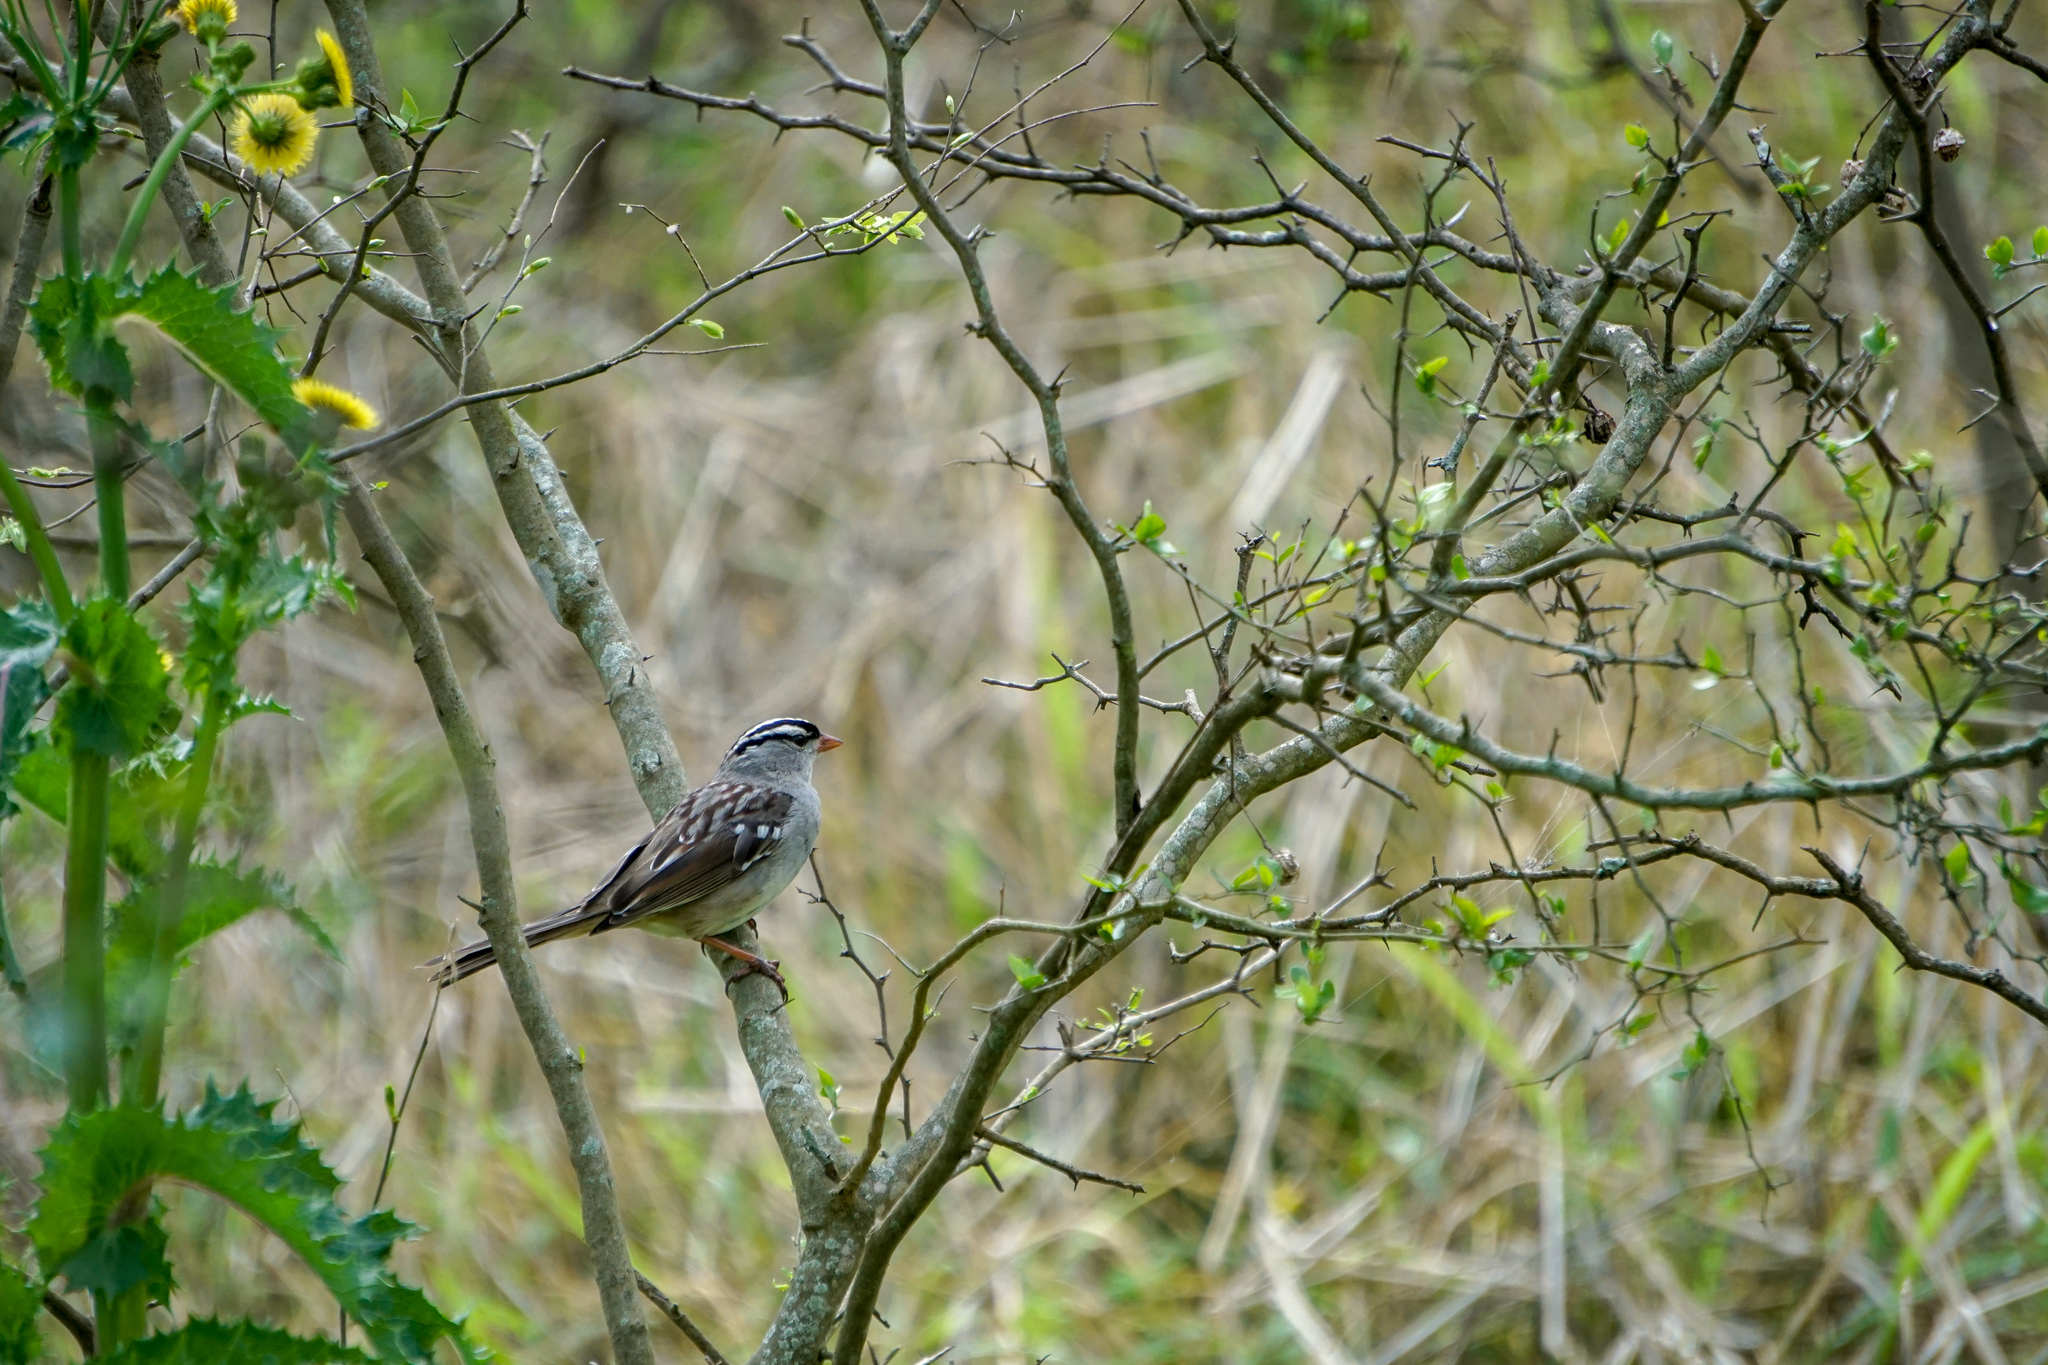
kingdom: Animalia
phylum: Chordata
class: Aves
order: Passeriformes
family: Passerellidae
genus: Zonotrichia
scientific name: Zonotrichia leucophrys
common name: White-crowned sparrow
